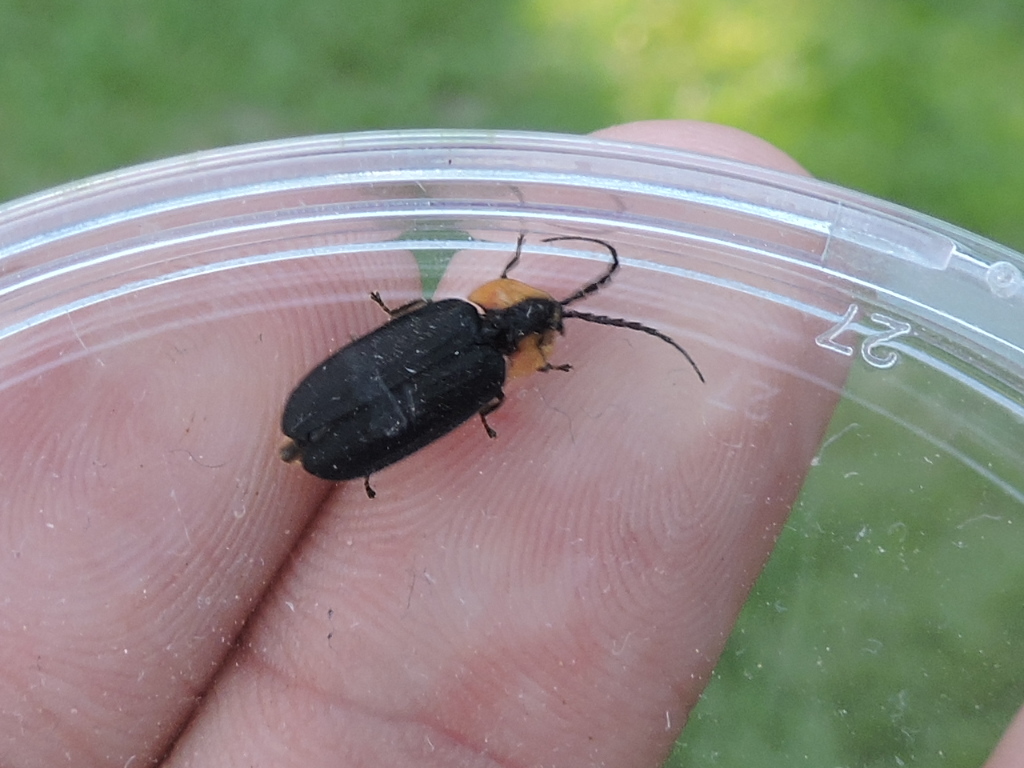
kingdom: Animalia
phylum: Arthropoda
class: Insecta
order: Coleoptera
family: Lampyridae
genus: Lucidota
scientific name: Lucidota atra
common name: Black firefly
